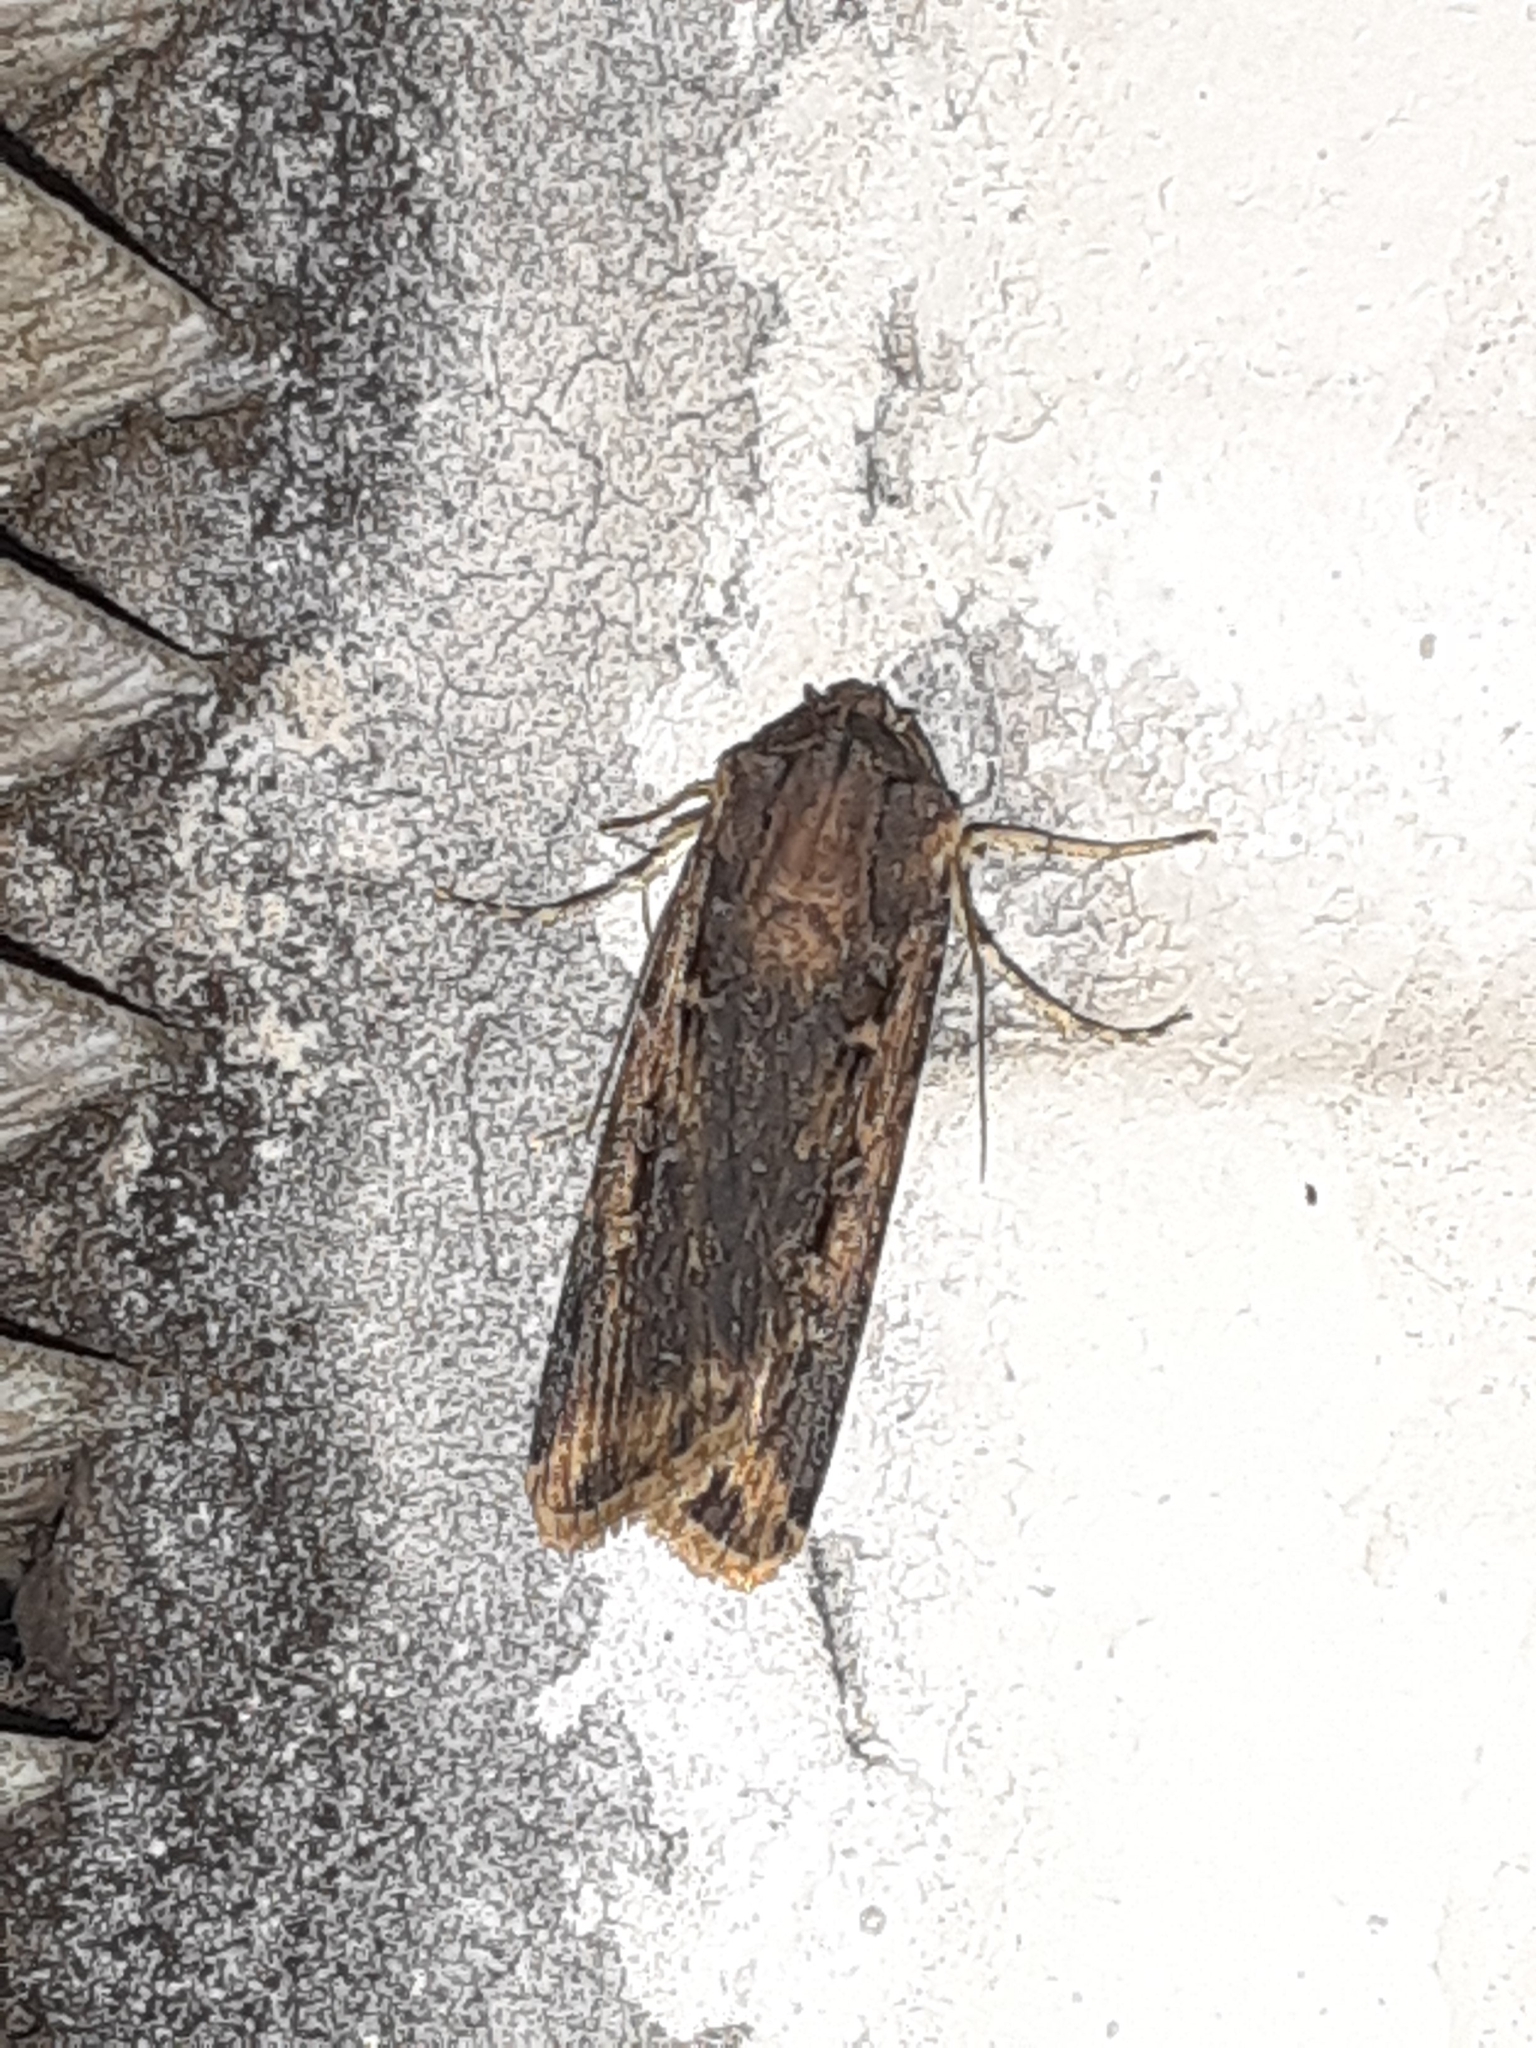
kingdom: Animalia
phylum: Arthropoda
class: Insecta
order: Lepidoptera
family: Noctuidae
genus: Feltia
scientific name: Feltia subterranea
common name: Granulate cutworm
